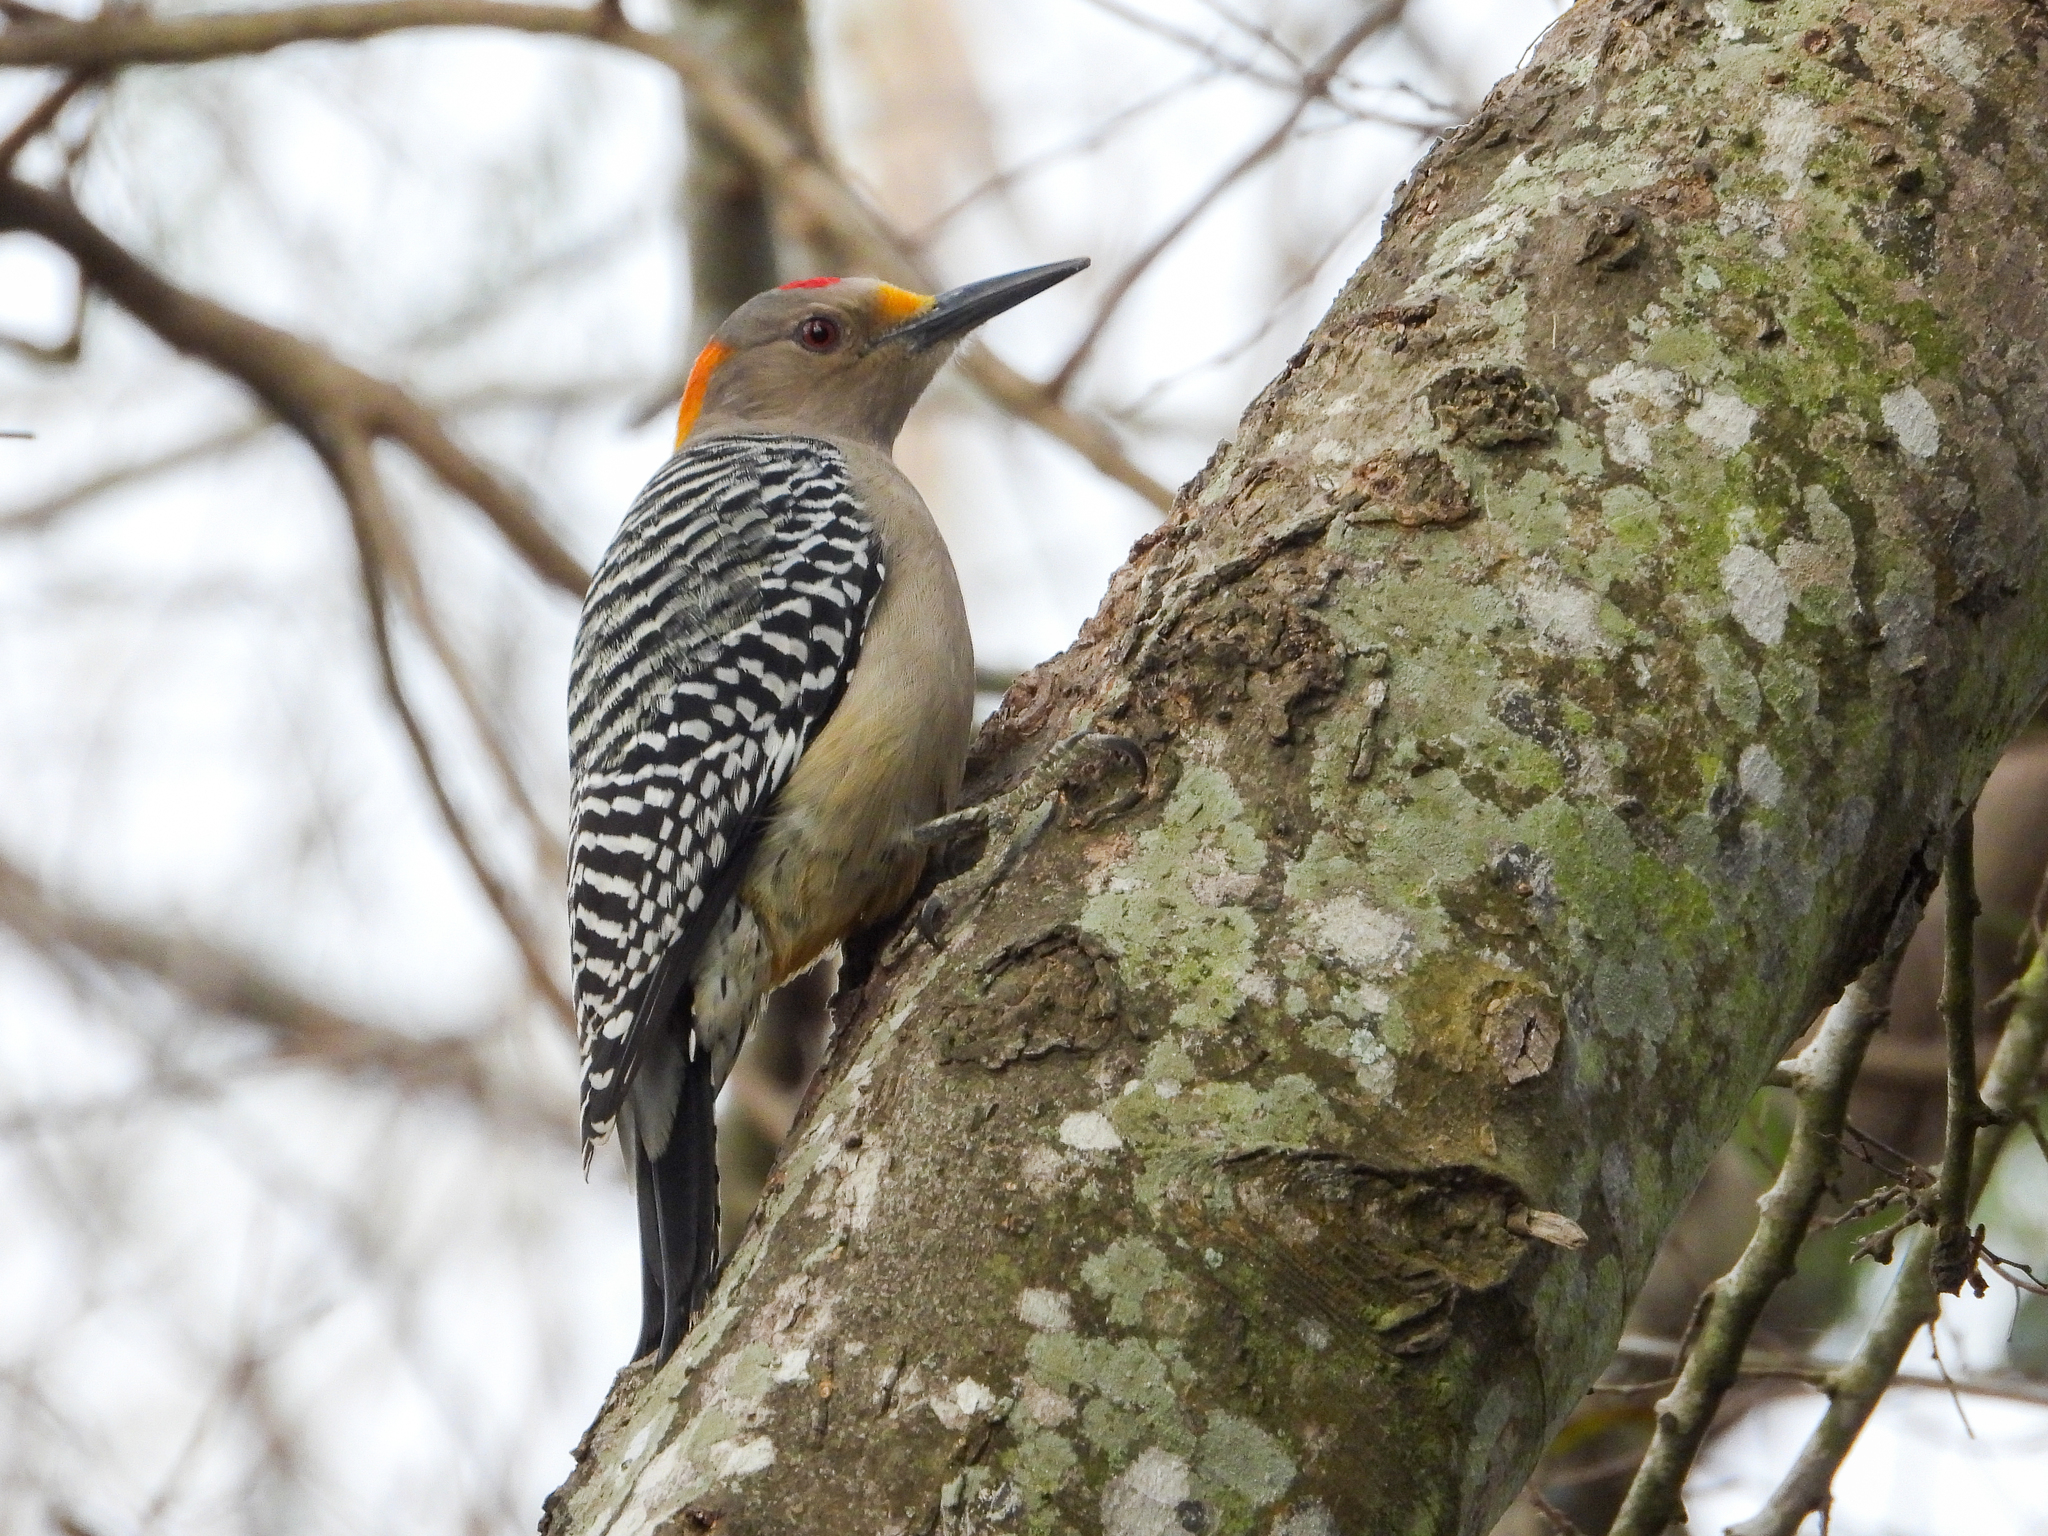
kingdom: Animalia
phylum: Chordata
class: Aves
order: Piciformes
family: Picidae
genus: Melanerpes
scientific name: Melanerpes aurifrons
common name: Golden-fronted woodpecker
